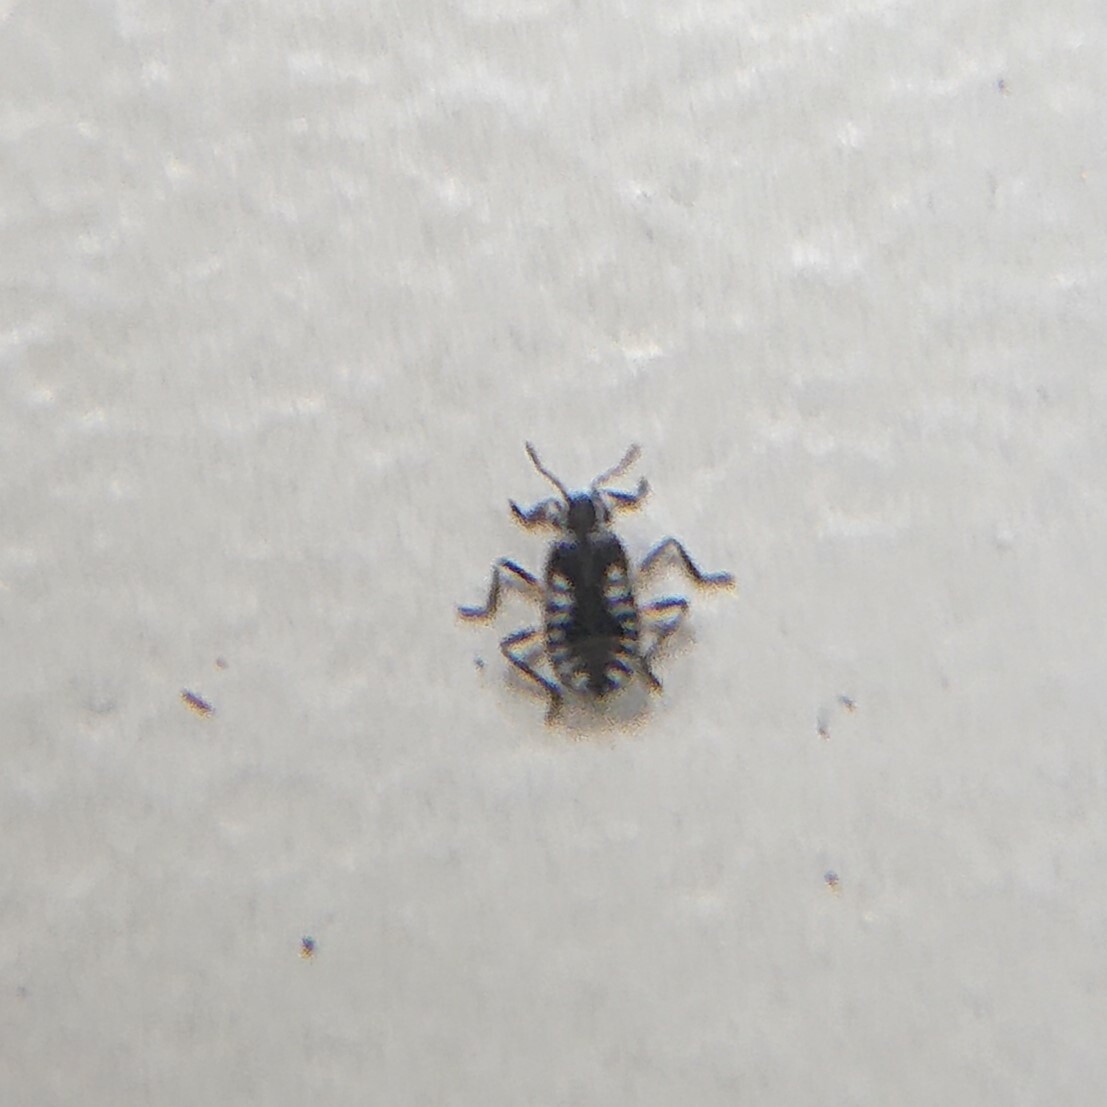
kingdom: Animalia
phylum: Arthropoda
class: Insecta
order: Hemiptera
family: Veliidae
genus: Microvelia
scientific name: Microvelia reticulata
